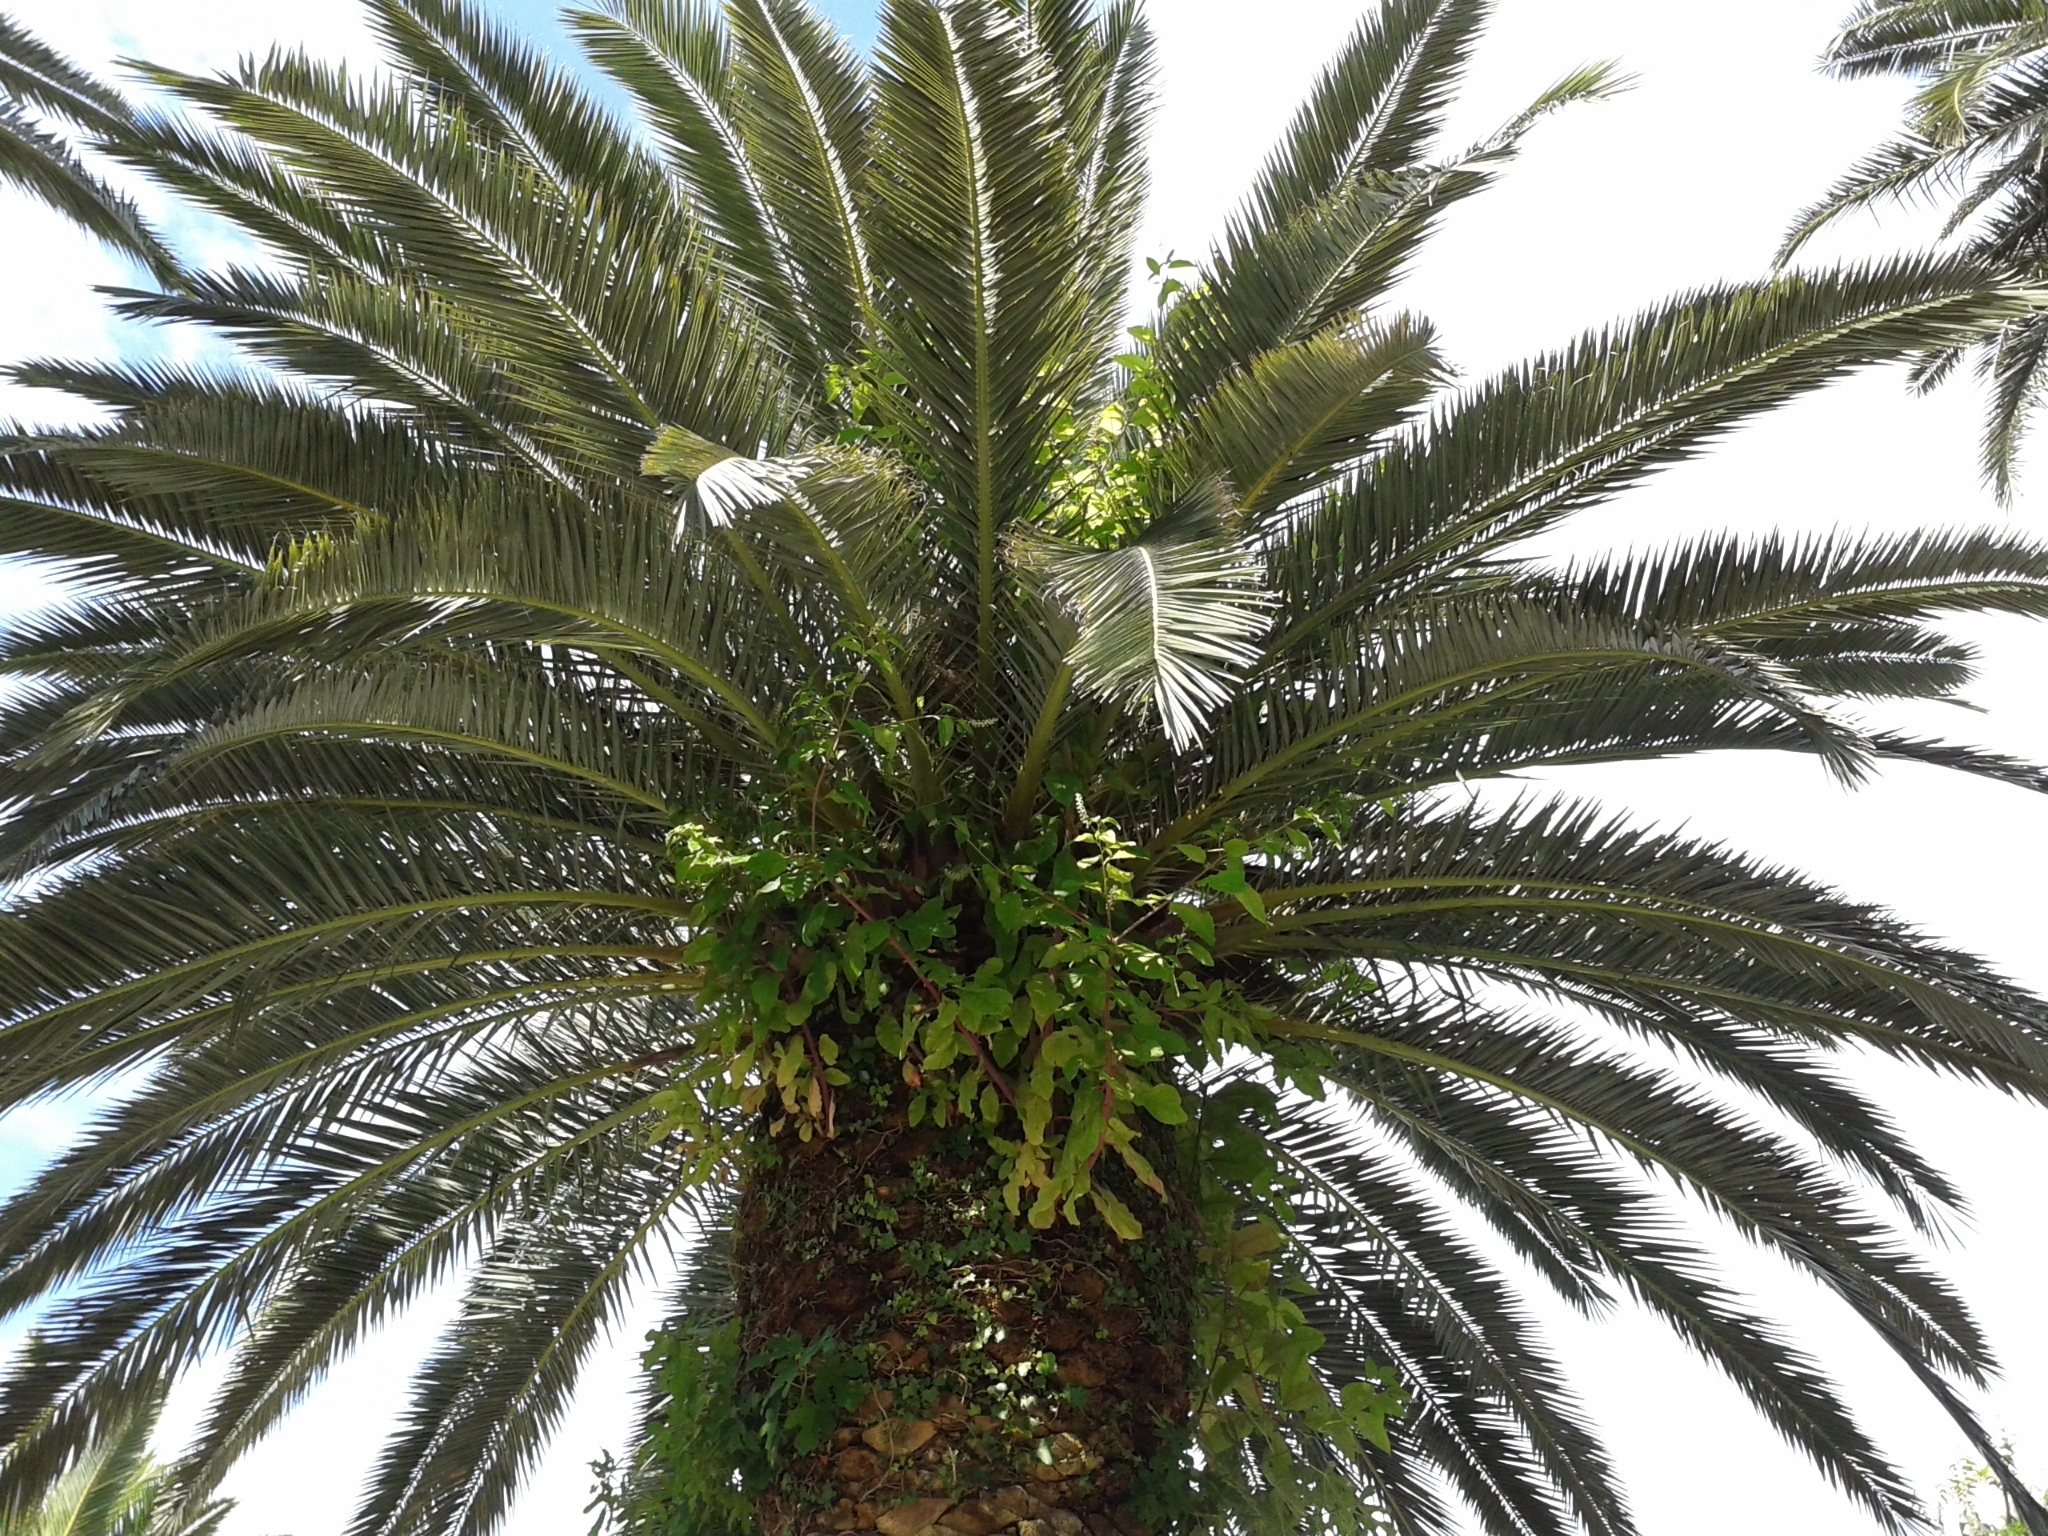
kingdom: Plantae
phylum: Tracheophyta
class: Magnoliopsida
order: Caryophyllales
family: Phytolaccaceae
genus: Phytolacca
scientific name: Phytolacca americana
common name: American pokeweed
